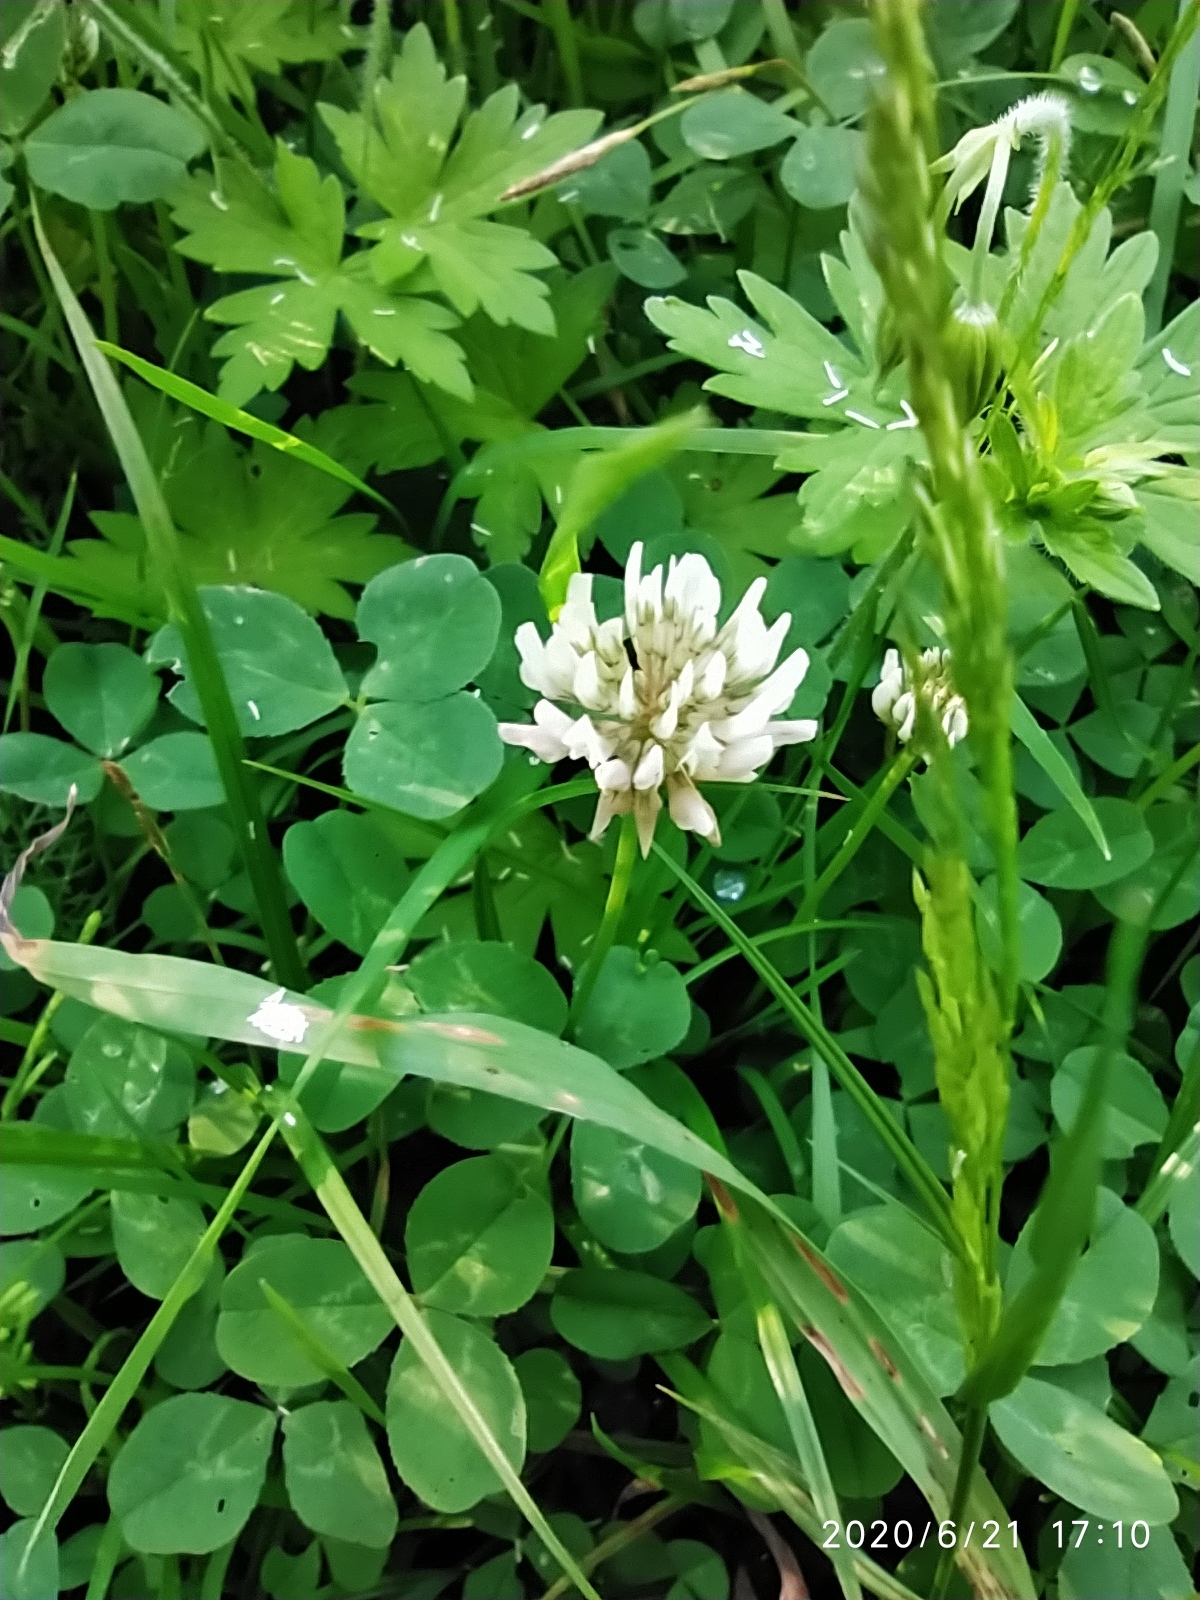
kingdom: Plantae
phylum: Tracheophyta
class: Magnoliopsida
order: Fabales
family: Fabaceae
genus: Trifolium
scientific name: Trifolium repens
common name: White clover
